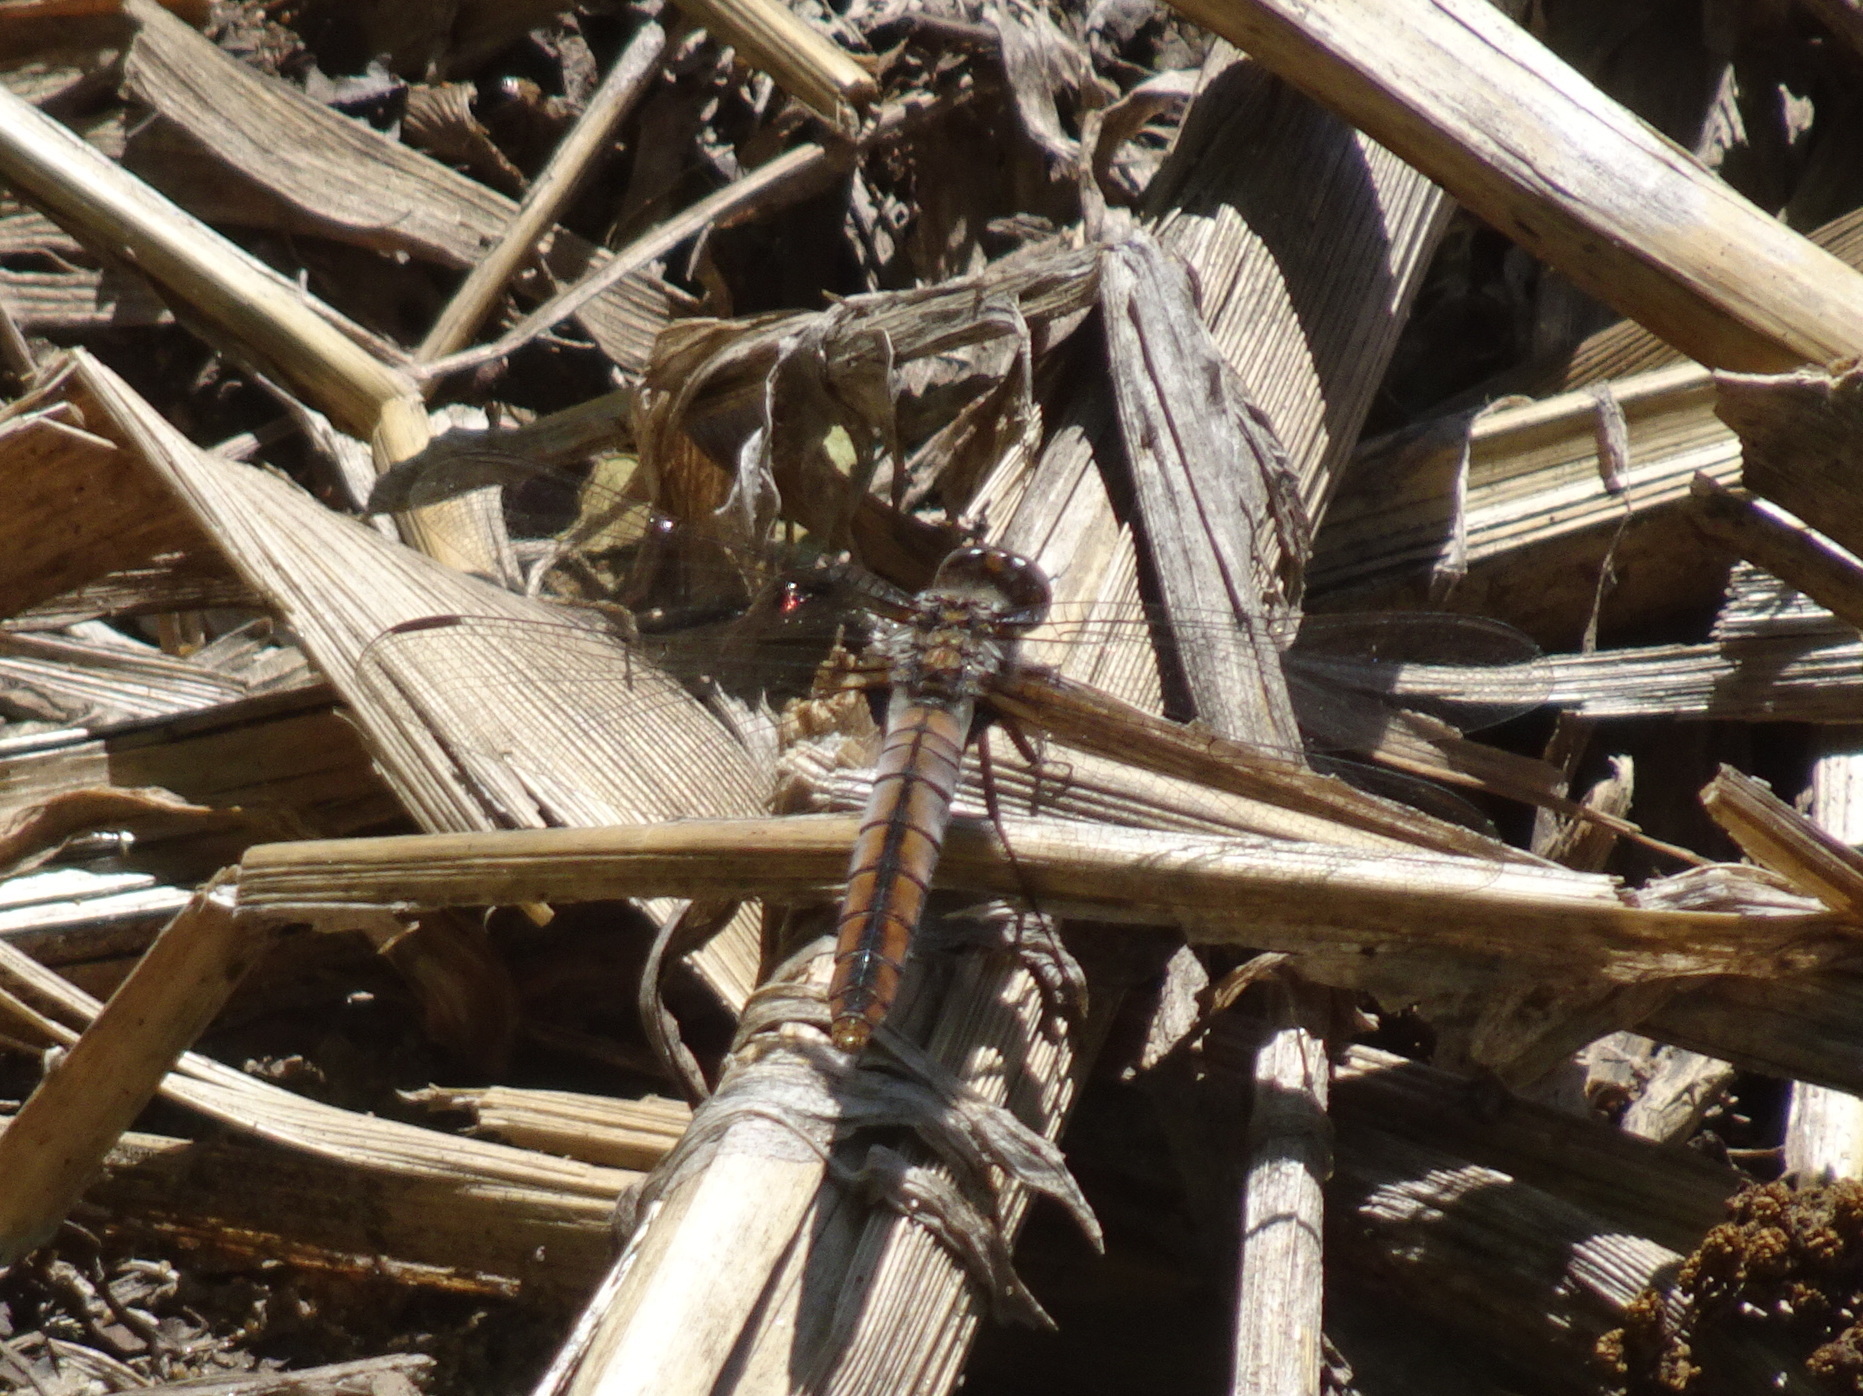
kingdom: Animalia
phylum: Arthropoda
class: Insecta
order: Odonata
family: Libellulidae
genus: Ladona
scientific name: Ladona julia
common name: Chalk-fronted corporal
